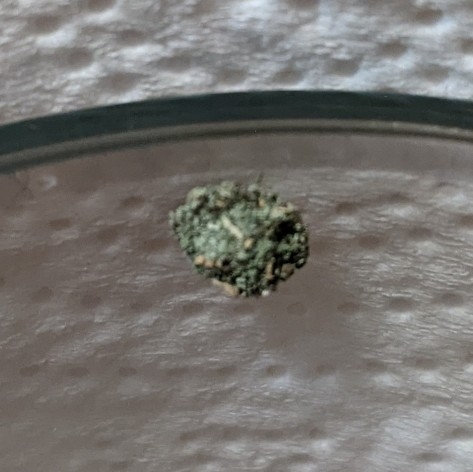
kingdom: Animalia
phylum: Arthropoda
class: Insecta
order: Neuroptera
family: Chrysopidae
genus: Leucochrysa
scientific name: Leucochrysa pavida
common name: Lichen-carrying green lacewing
